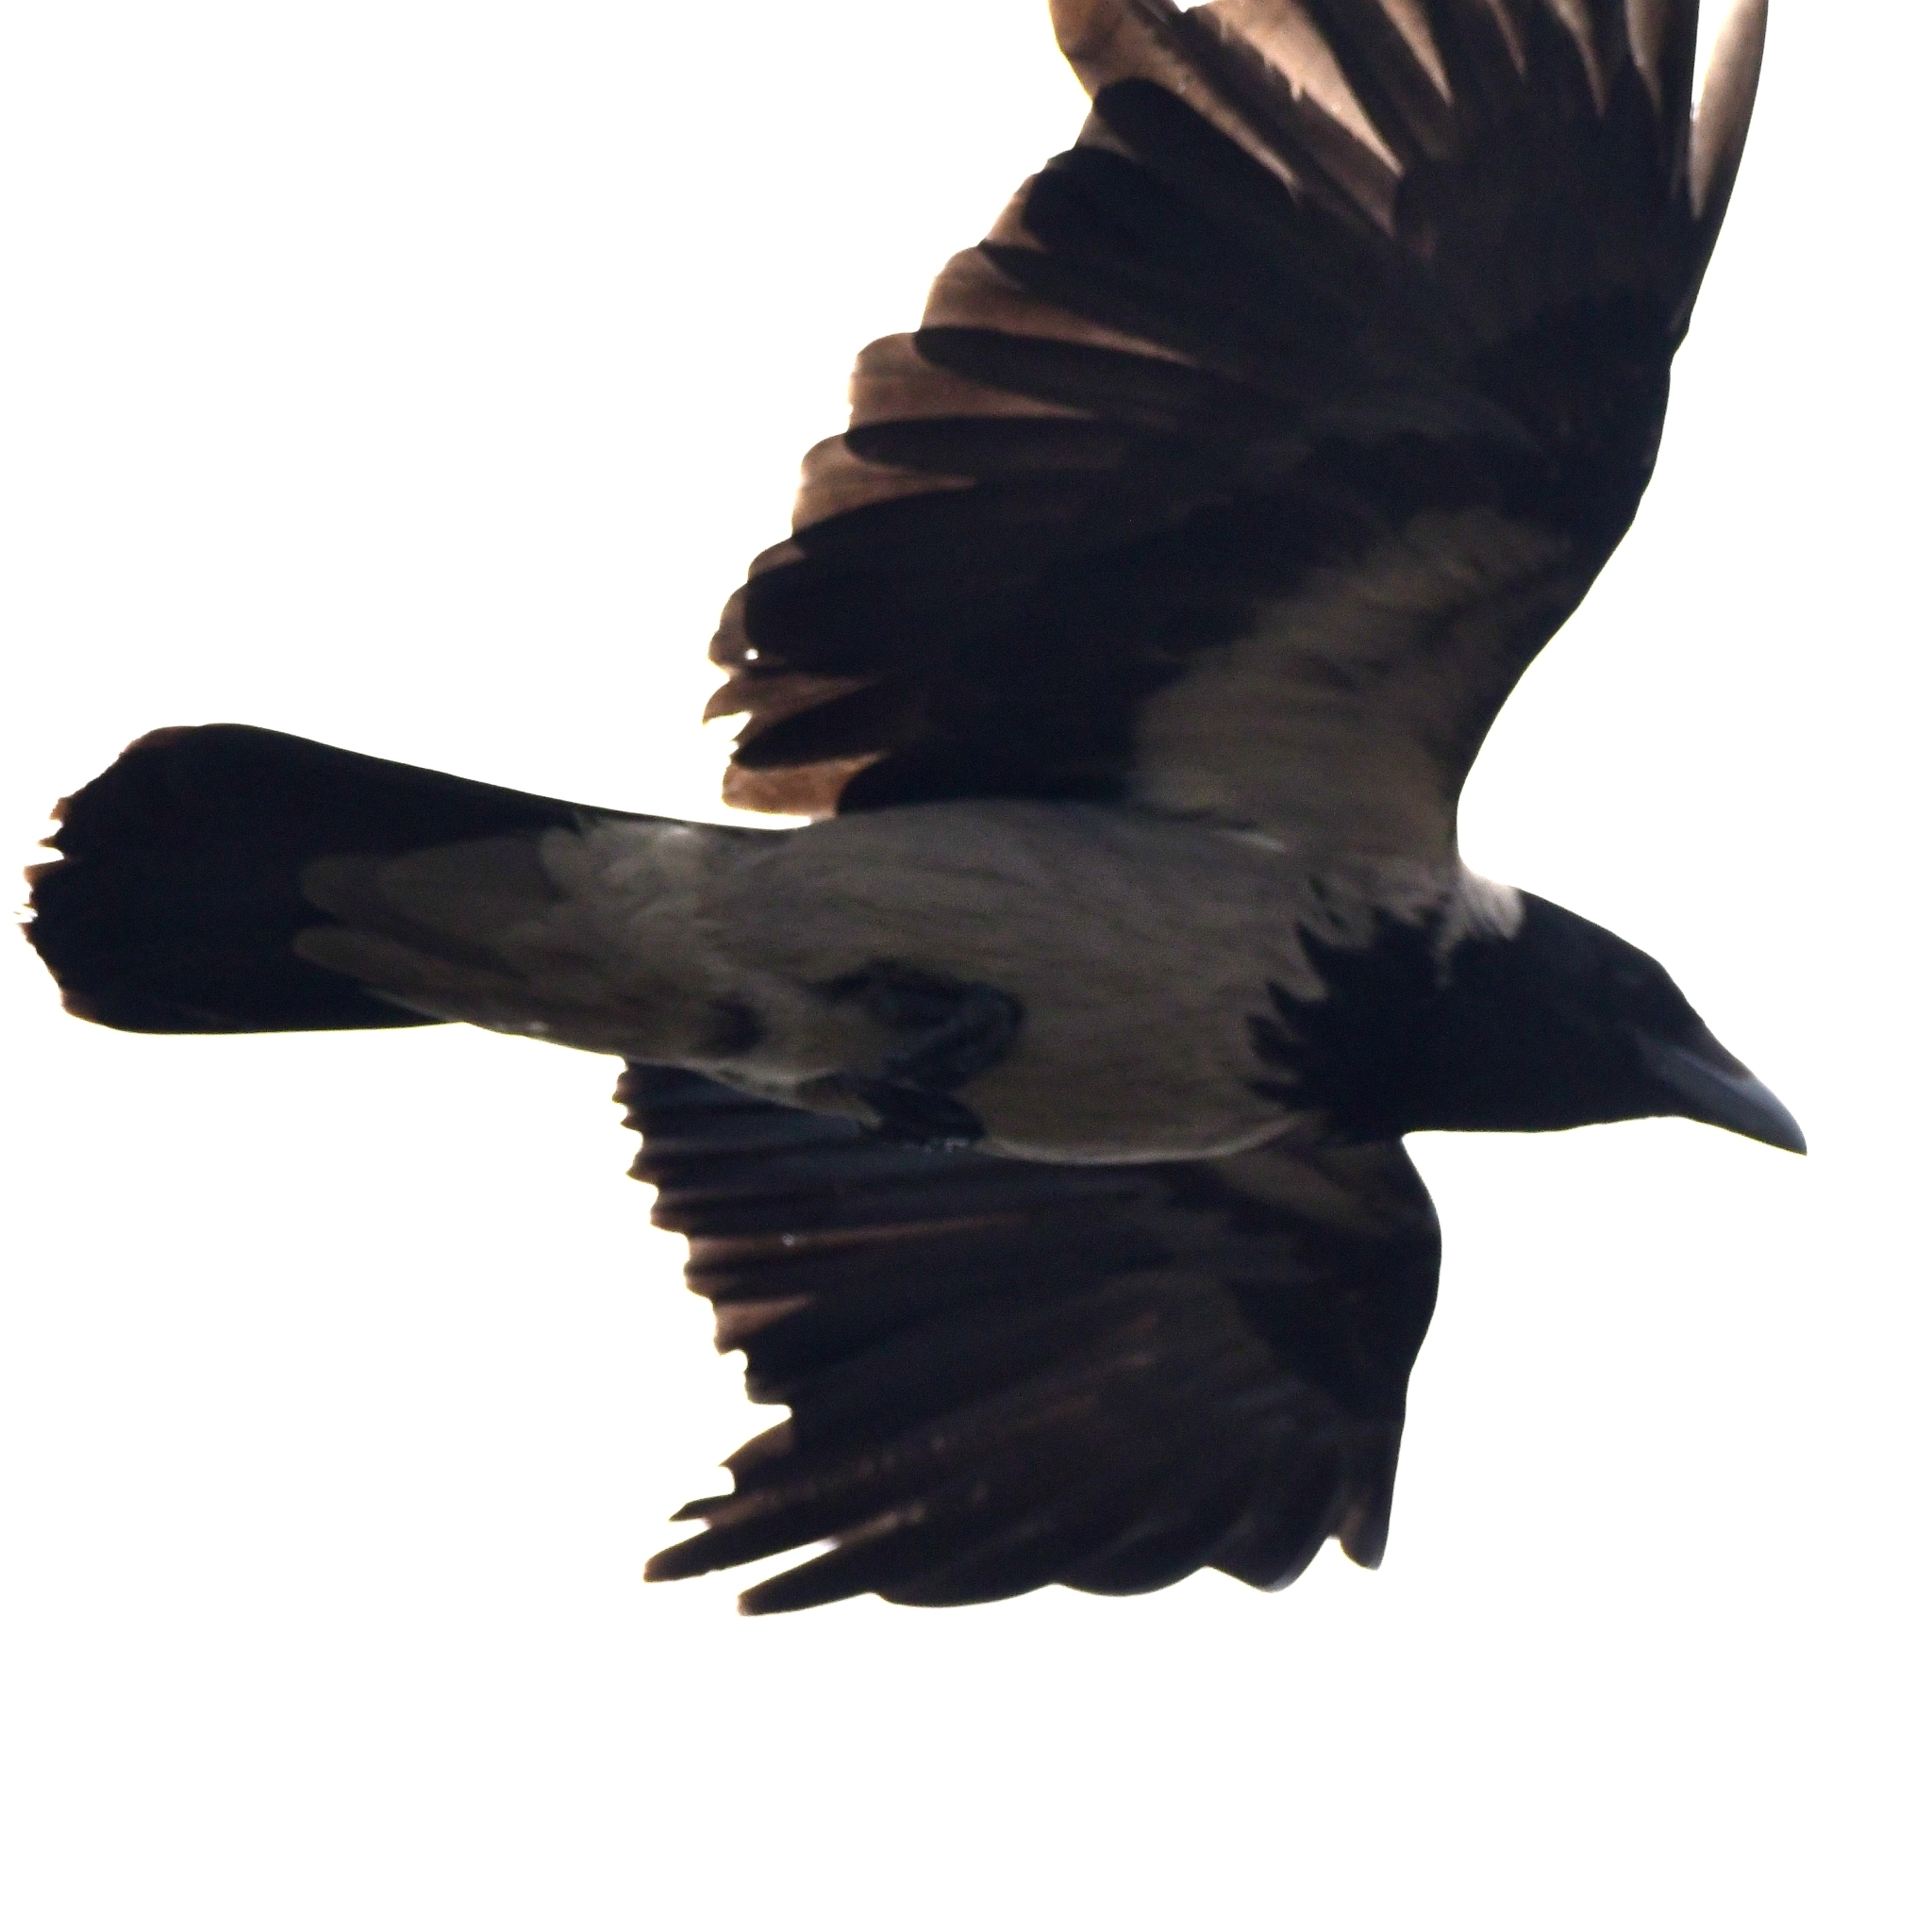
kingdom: Animalia
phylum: Chordata
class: Aves
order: Passeriformes
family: Corvidae
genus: Corvus
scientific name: Corvus cornix
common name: Hooded crow
